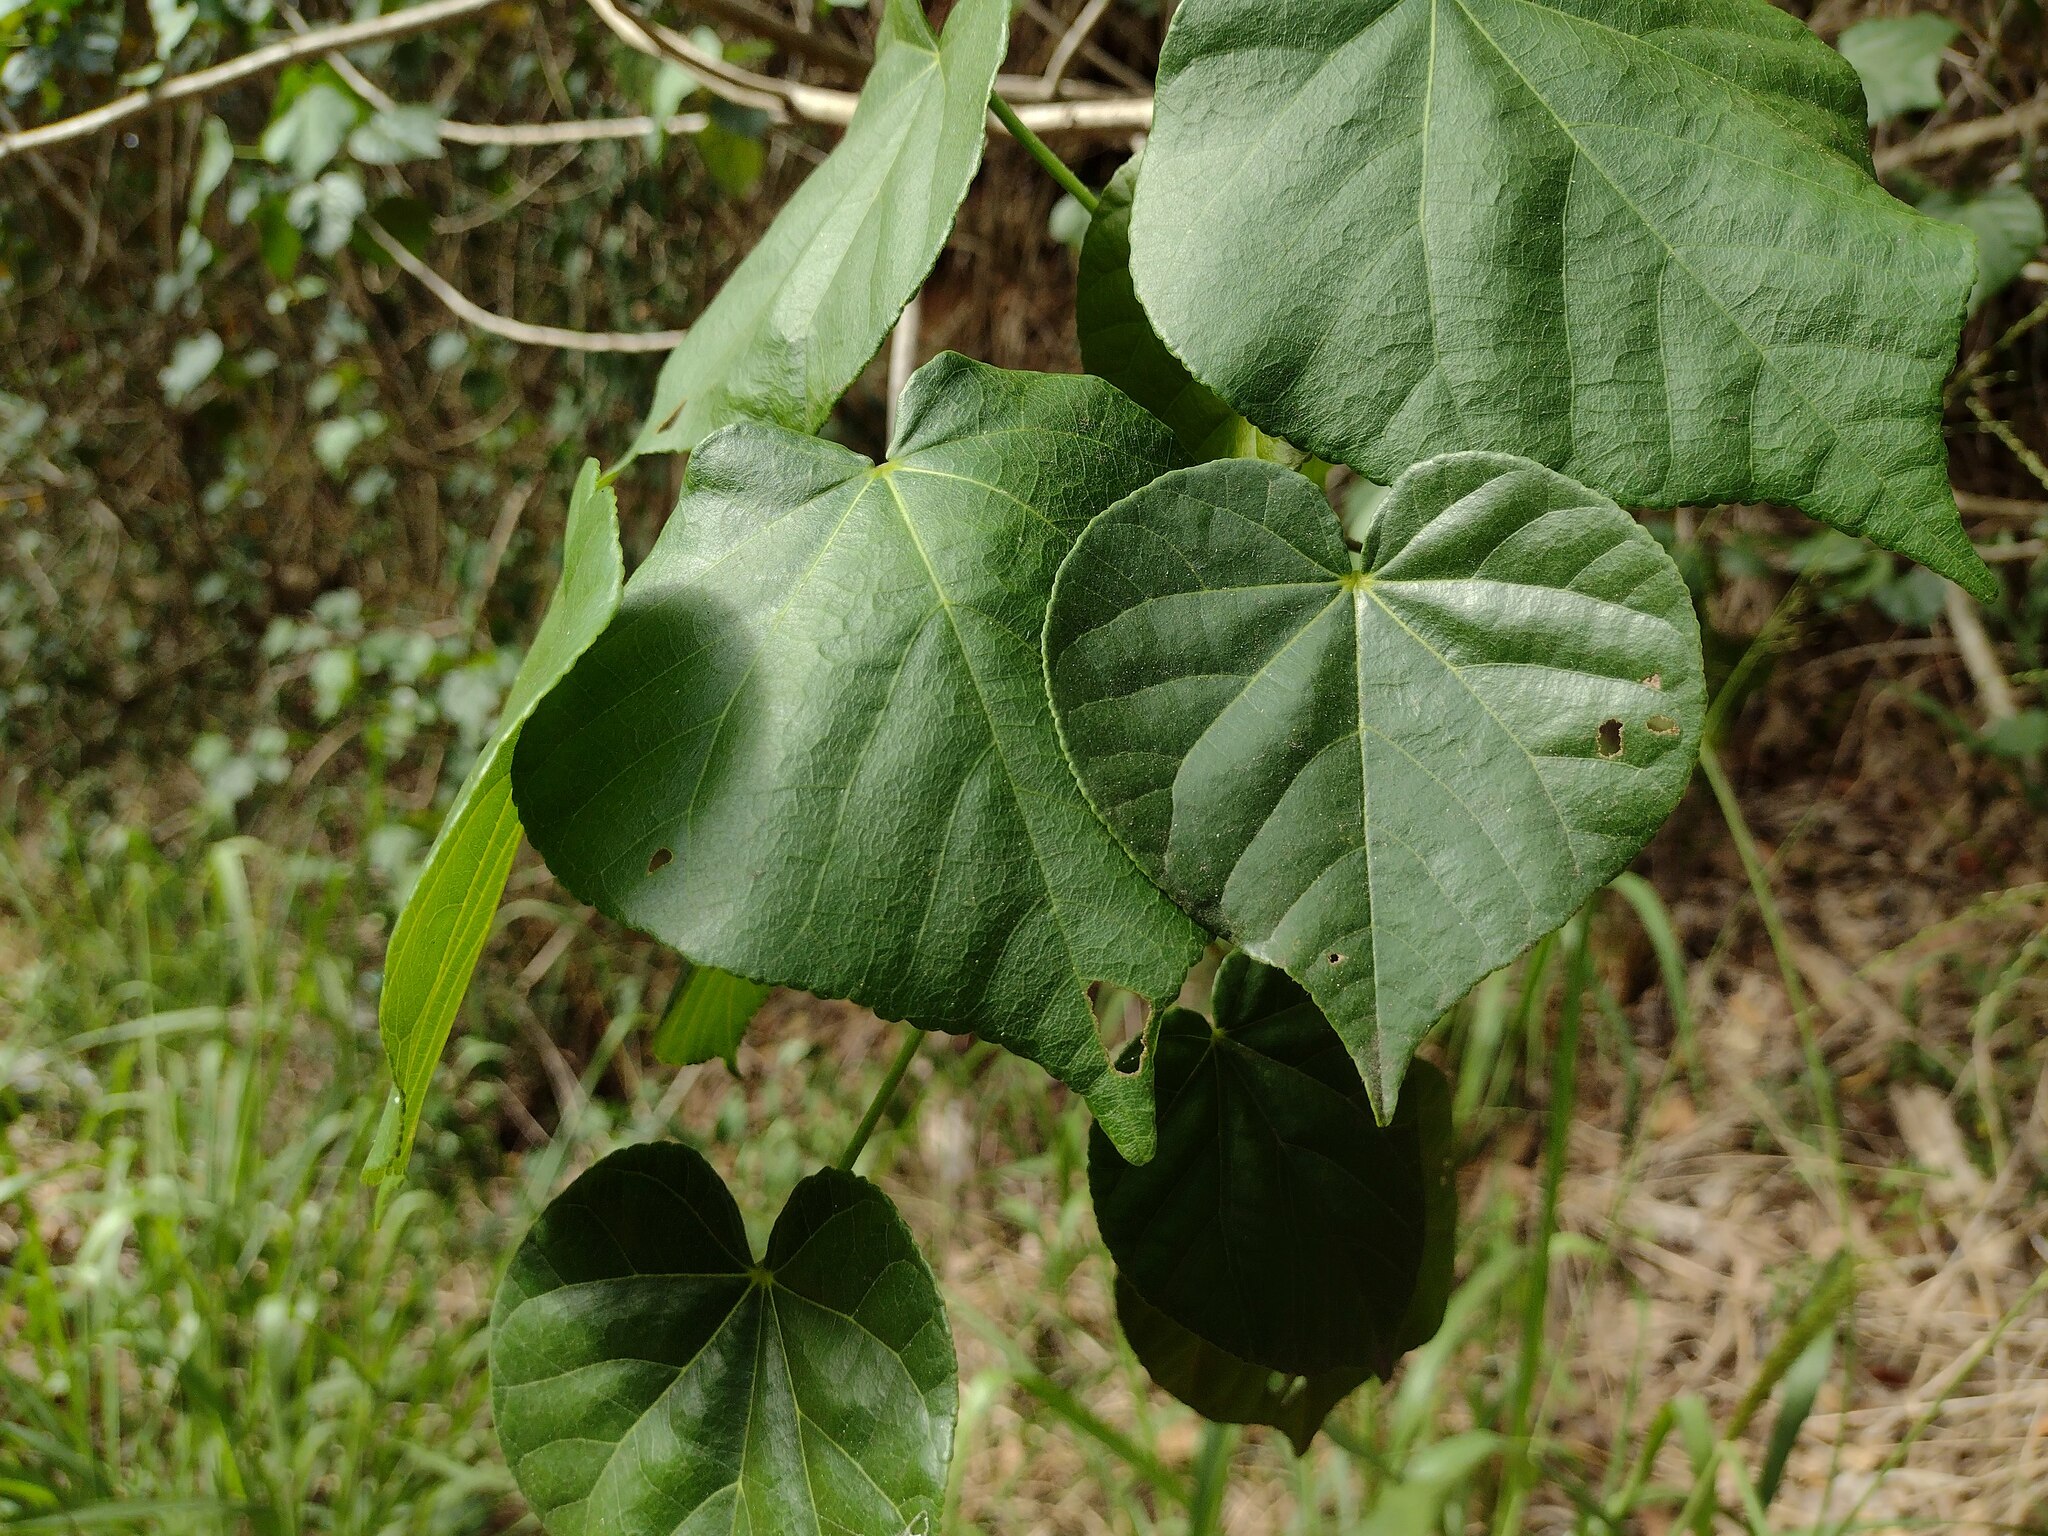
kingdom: Plantae
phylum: Tracheophyta
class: Magnoliopsida
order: Malvales
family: Malvaceae
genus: Talipariti
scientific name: Talipariti tiliaceum
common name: Sea hibiscus
